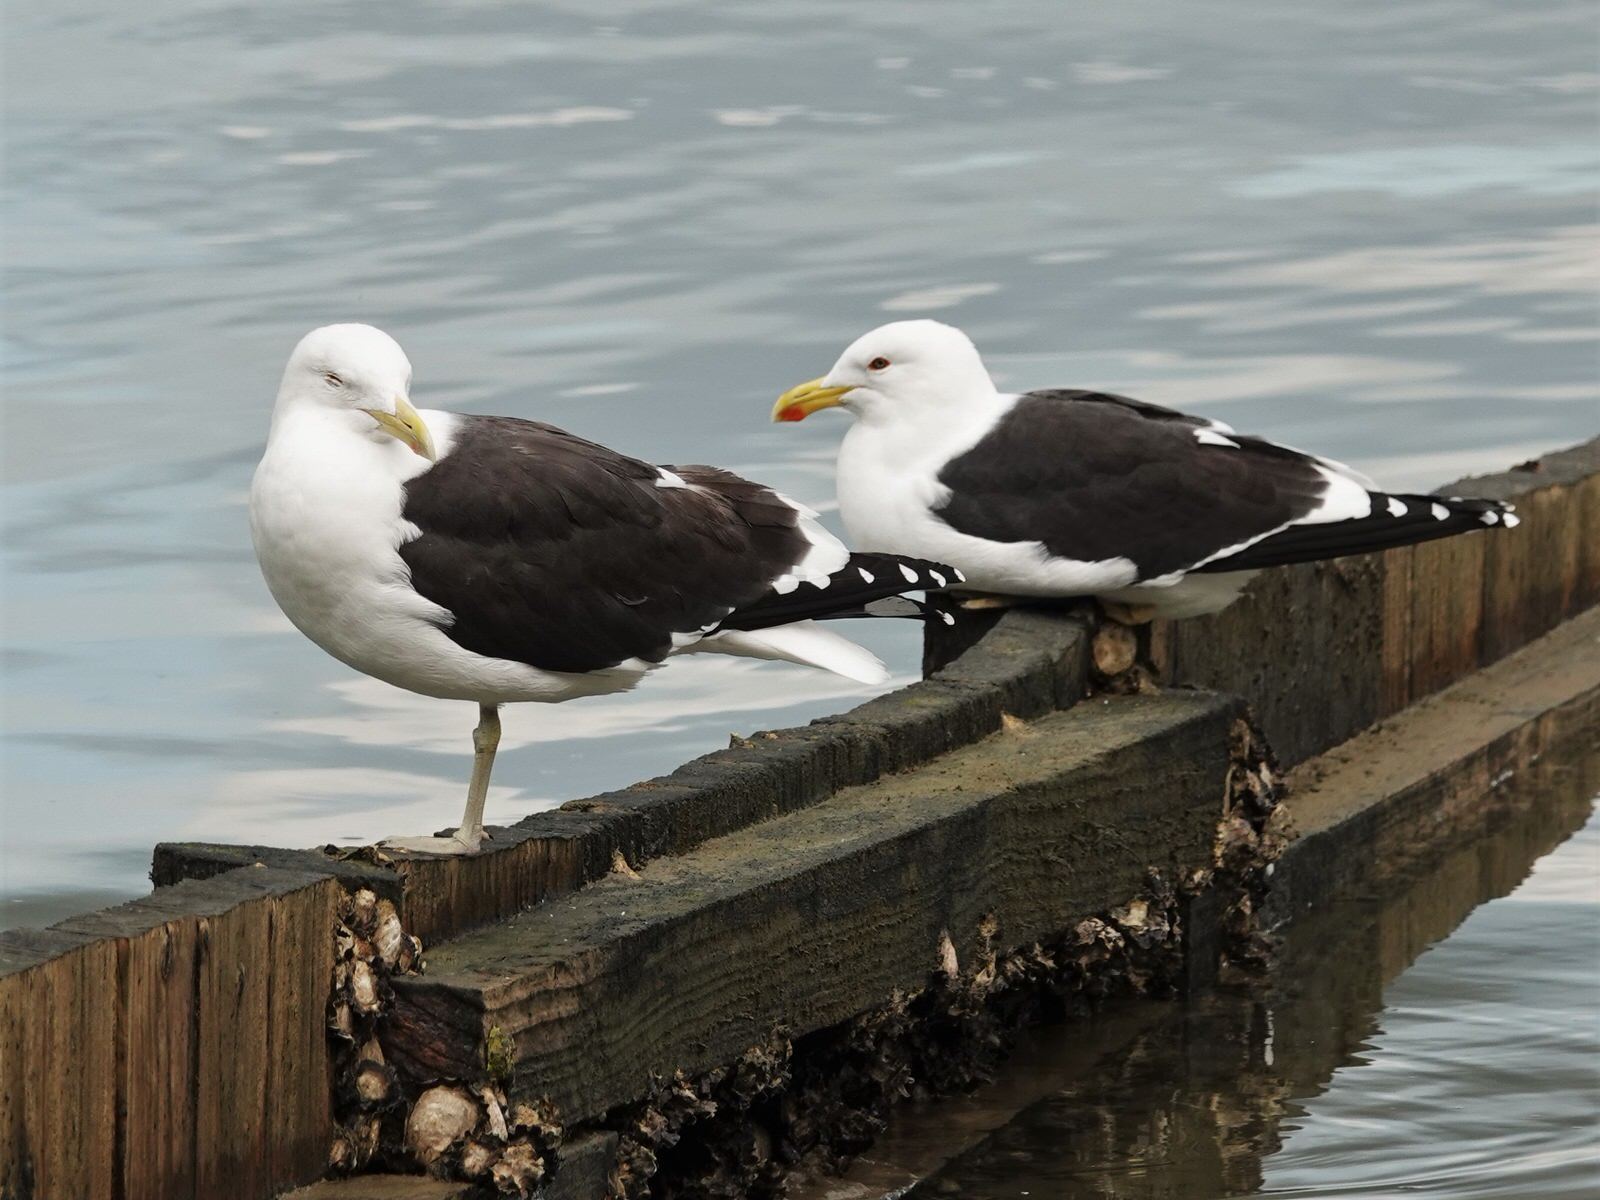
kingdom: Animalia
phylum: Chordata
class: Aves
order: Charadriiformes
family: Laridae
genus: Larus
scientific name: Larus dominicanus
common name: Kelp gull
